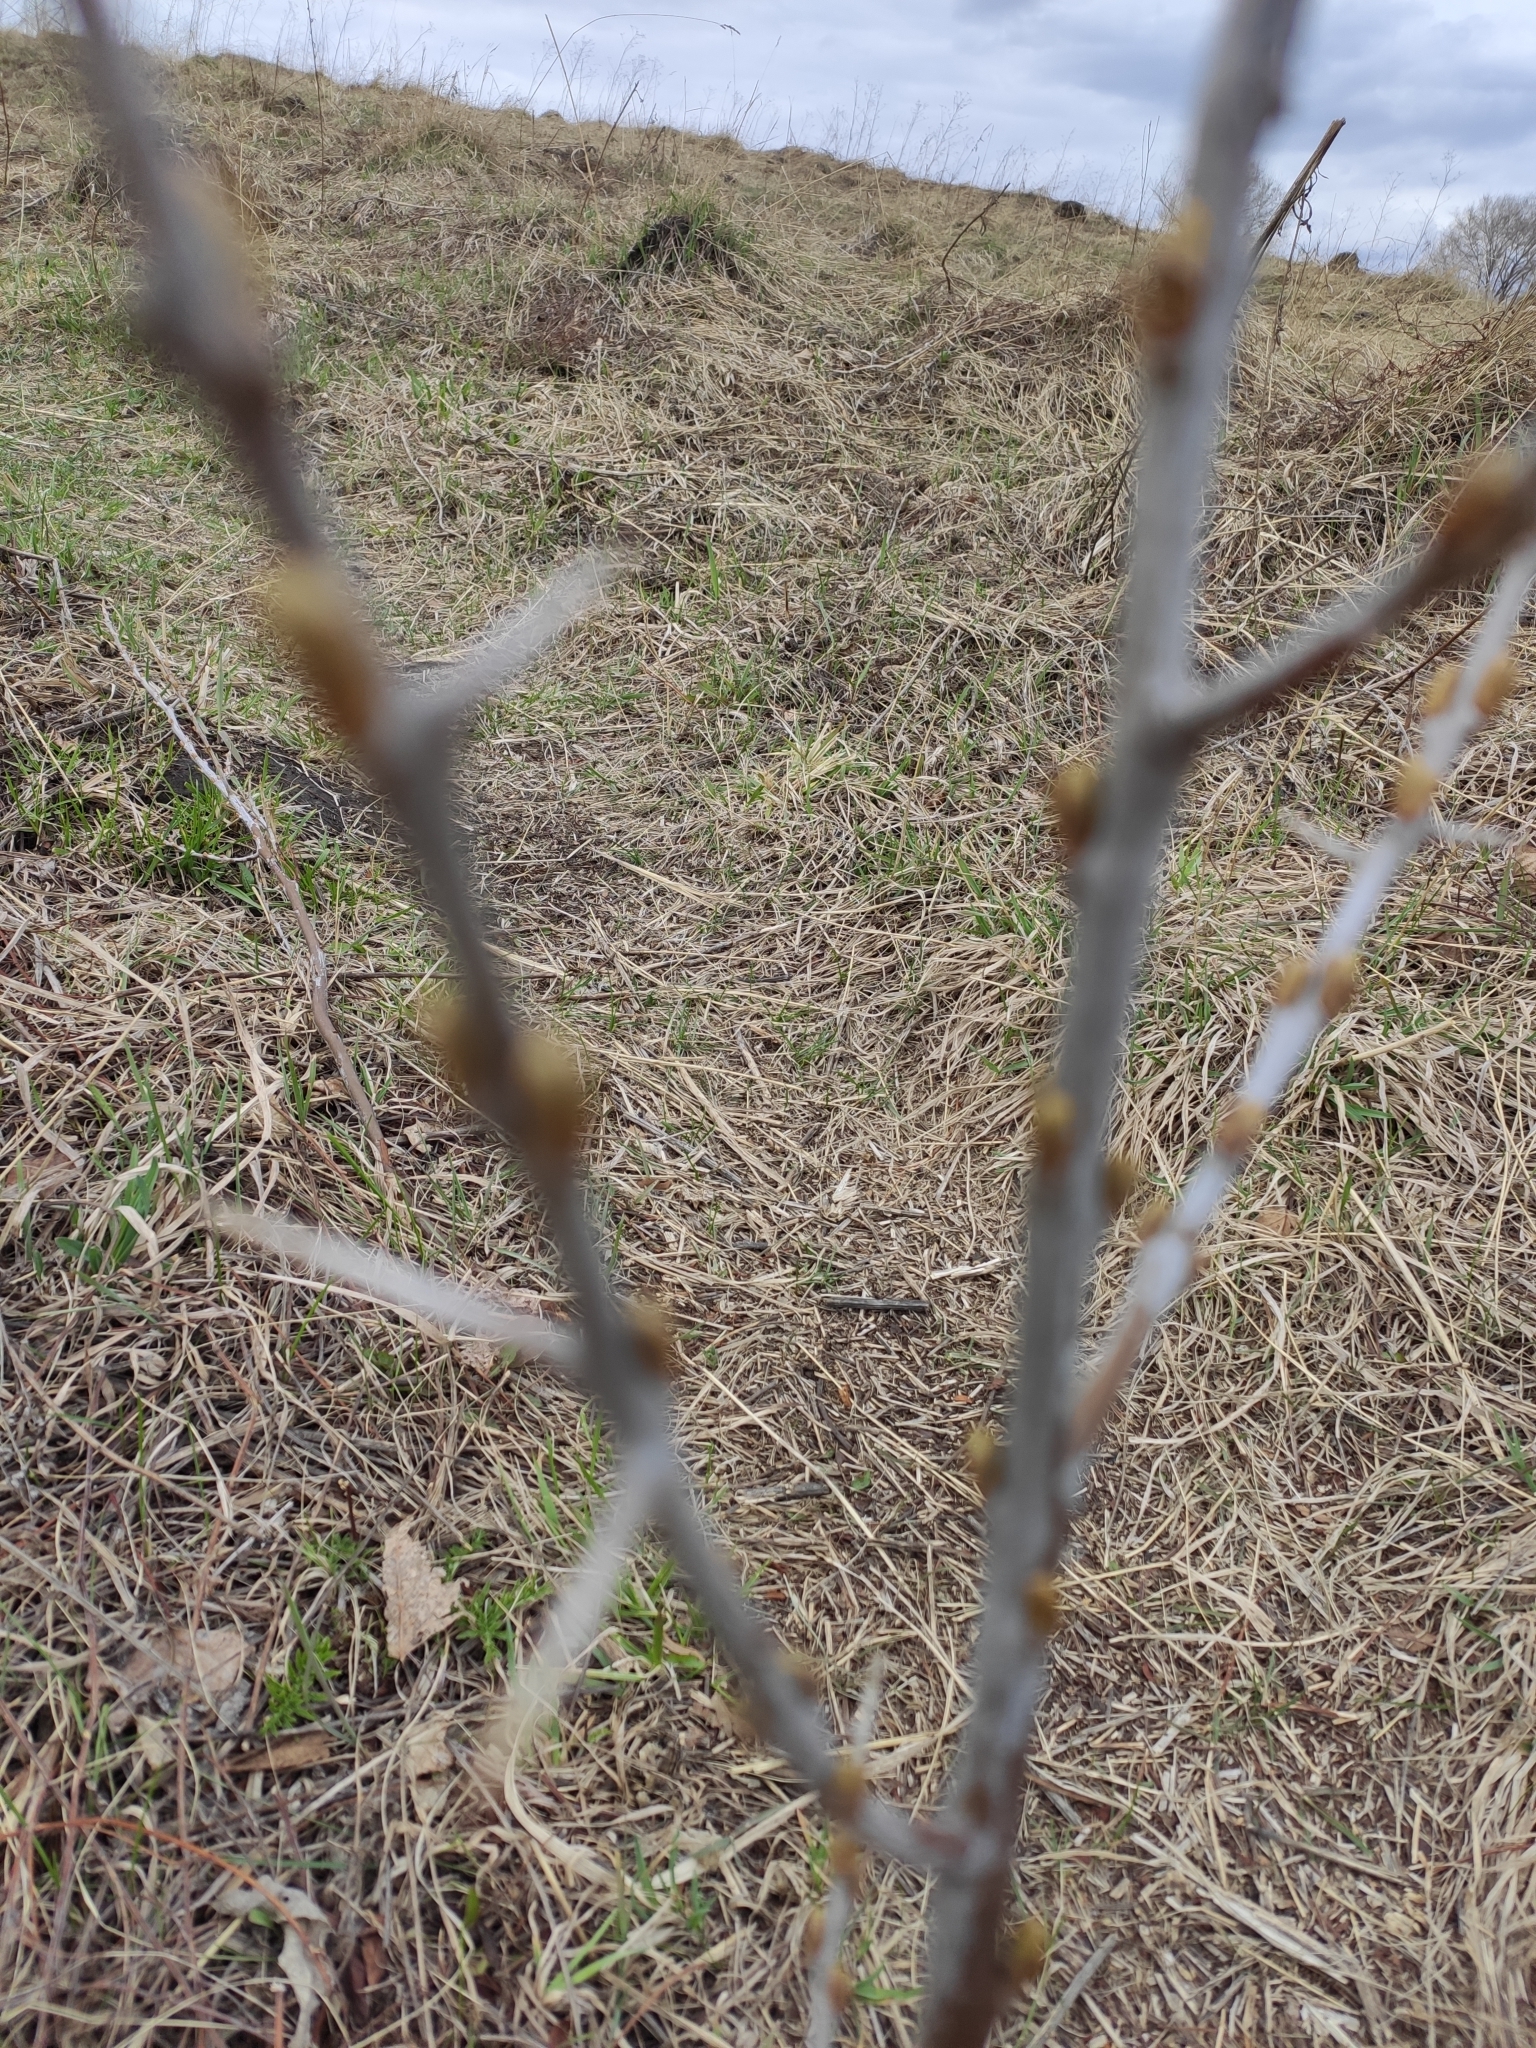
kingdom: Plantae
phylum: Tracheophyta
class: Magnoliopsida
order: Rosales
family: Elaeagnaceae
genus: Hippophae
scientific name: Hippophae rhamnoides
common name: Sea-buckthorn
